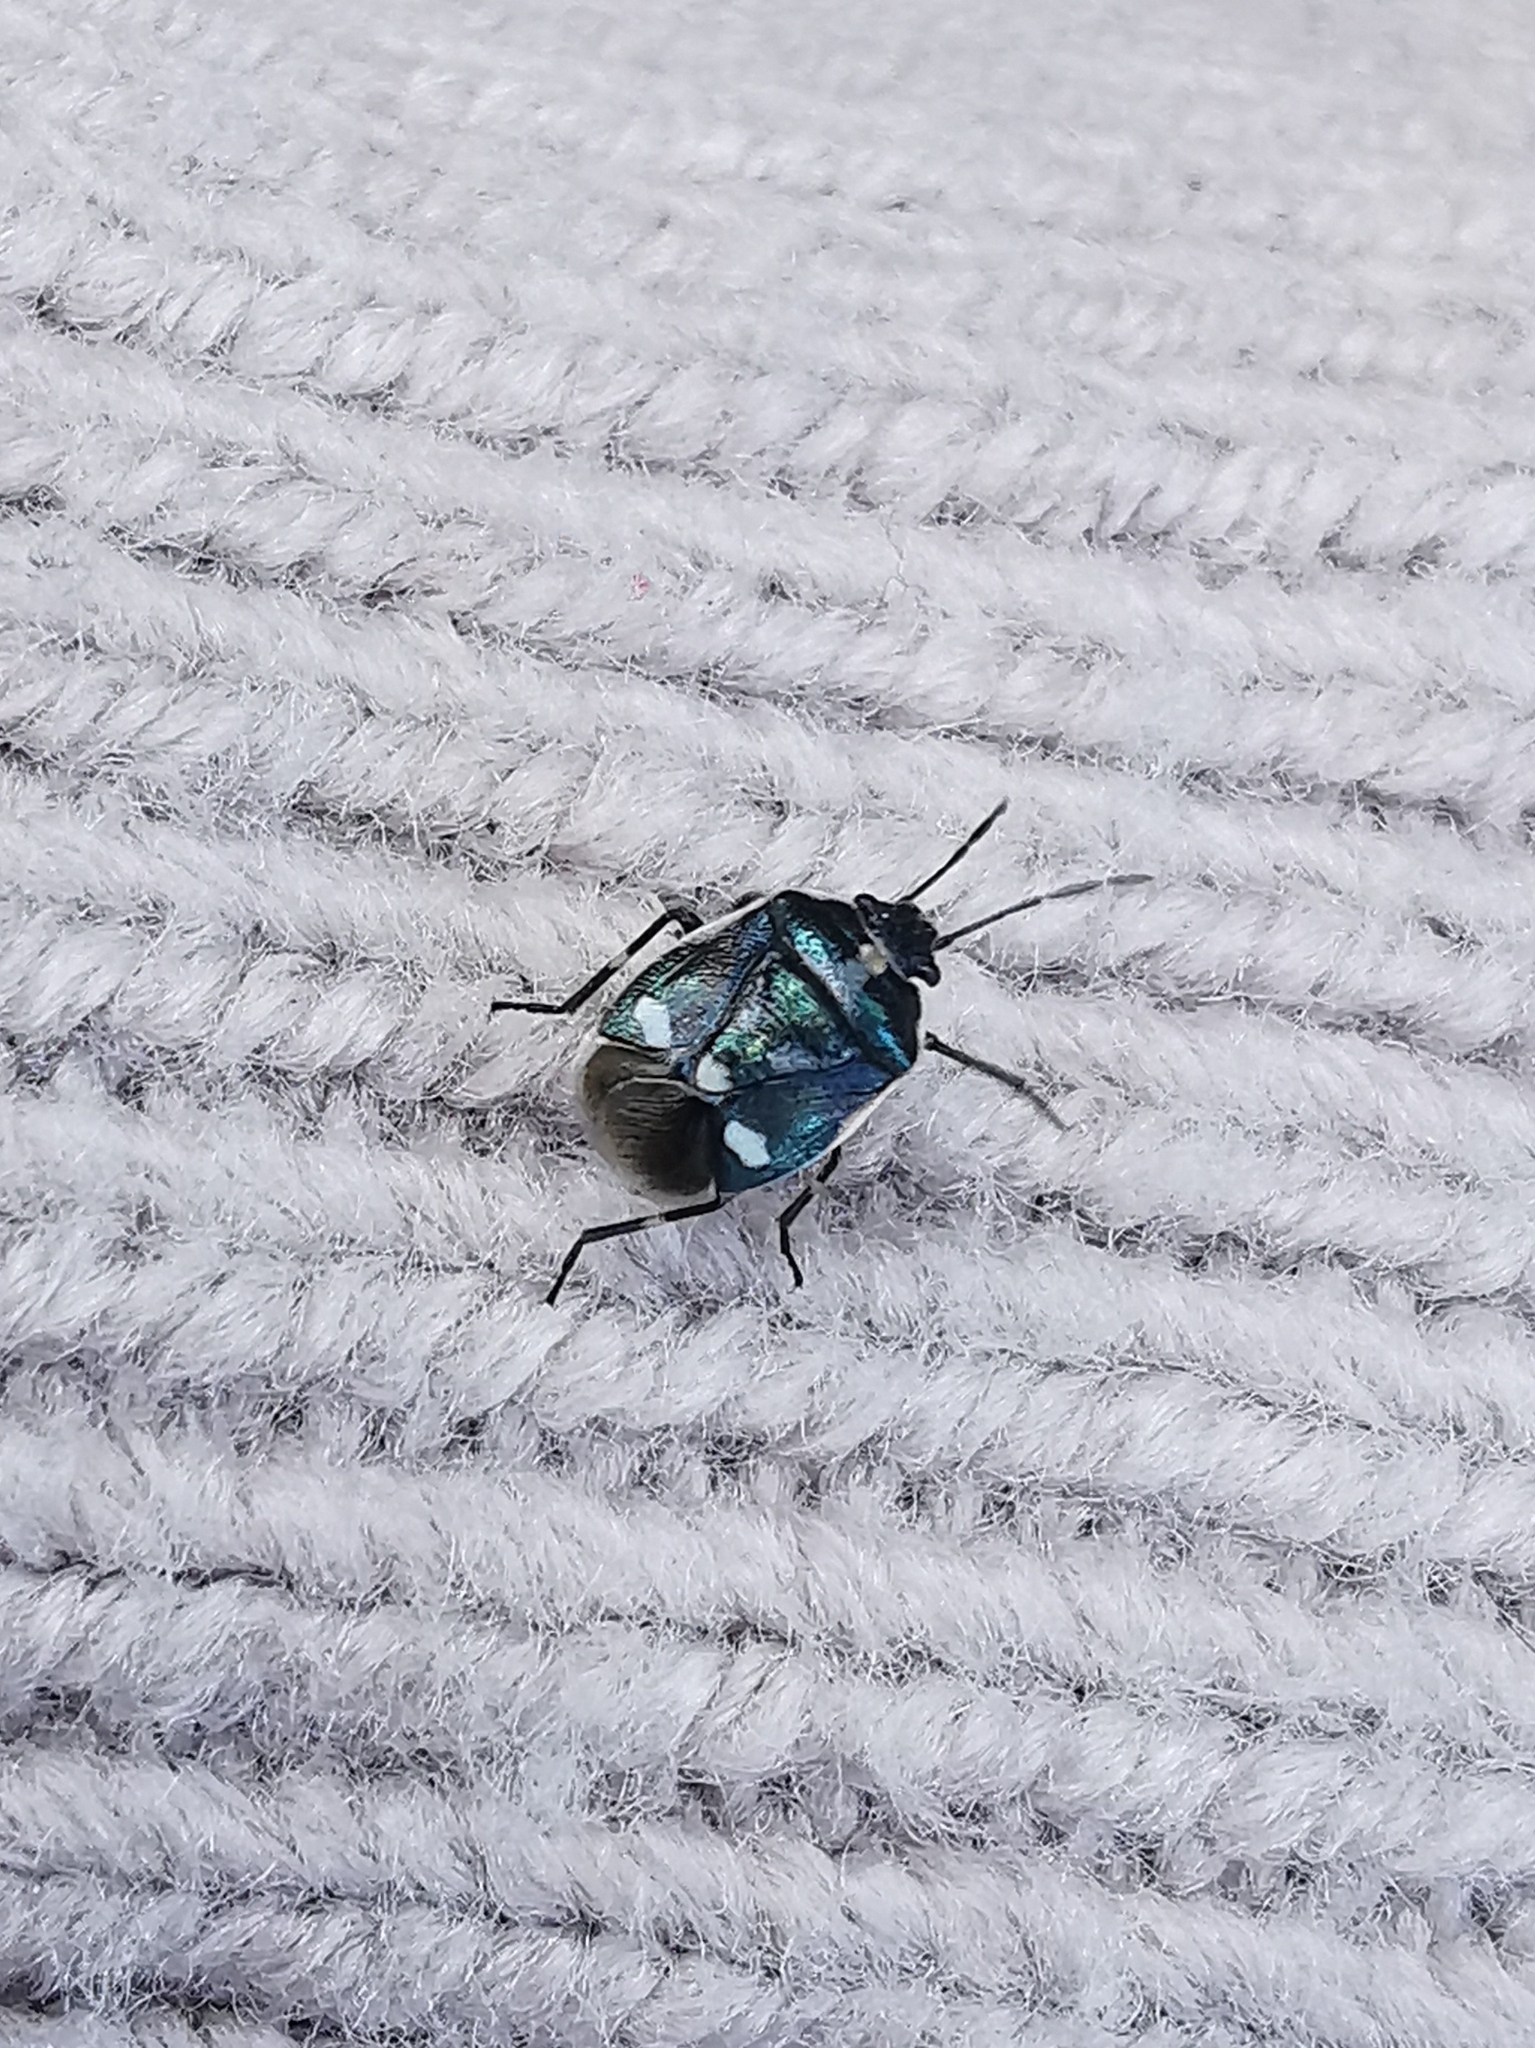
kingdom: Animalia
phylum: Arthropoda
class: Insecta
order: Hemiptera
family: Pentatomidae
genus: Eurydema
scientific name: Eurydema oleracea
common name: Cabbage bug
